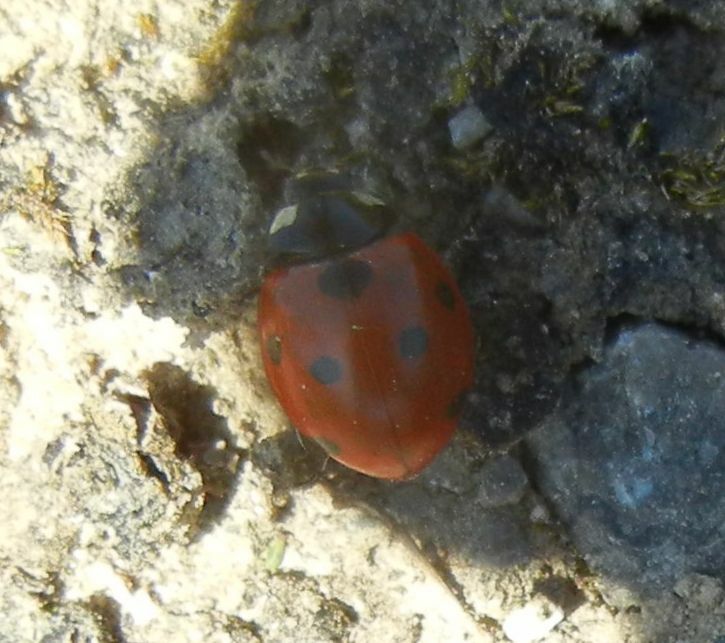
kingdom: Animalia
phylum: Arthropoda
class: Insecta
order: Coleoptera
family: Coccinellidae
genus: Coccinella
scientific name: Coccinella septempunctata
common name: Sevenspotted lady beetle
